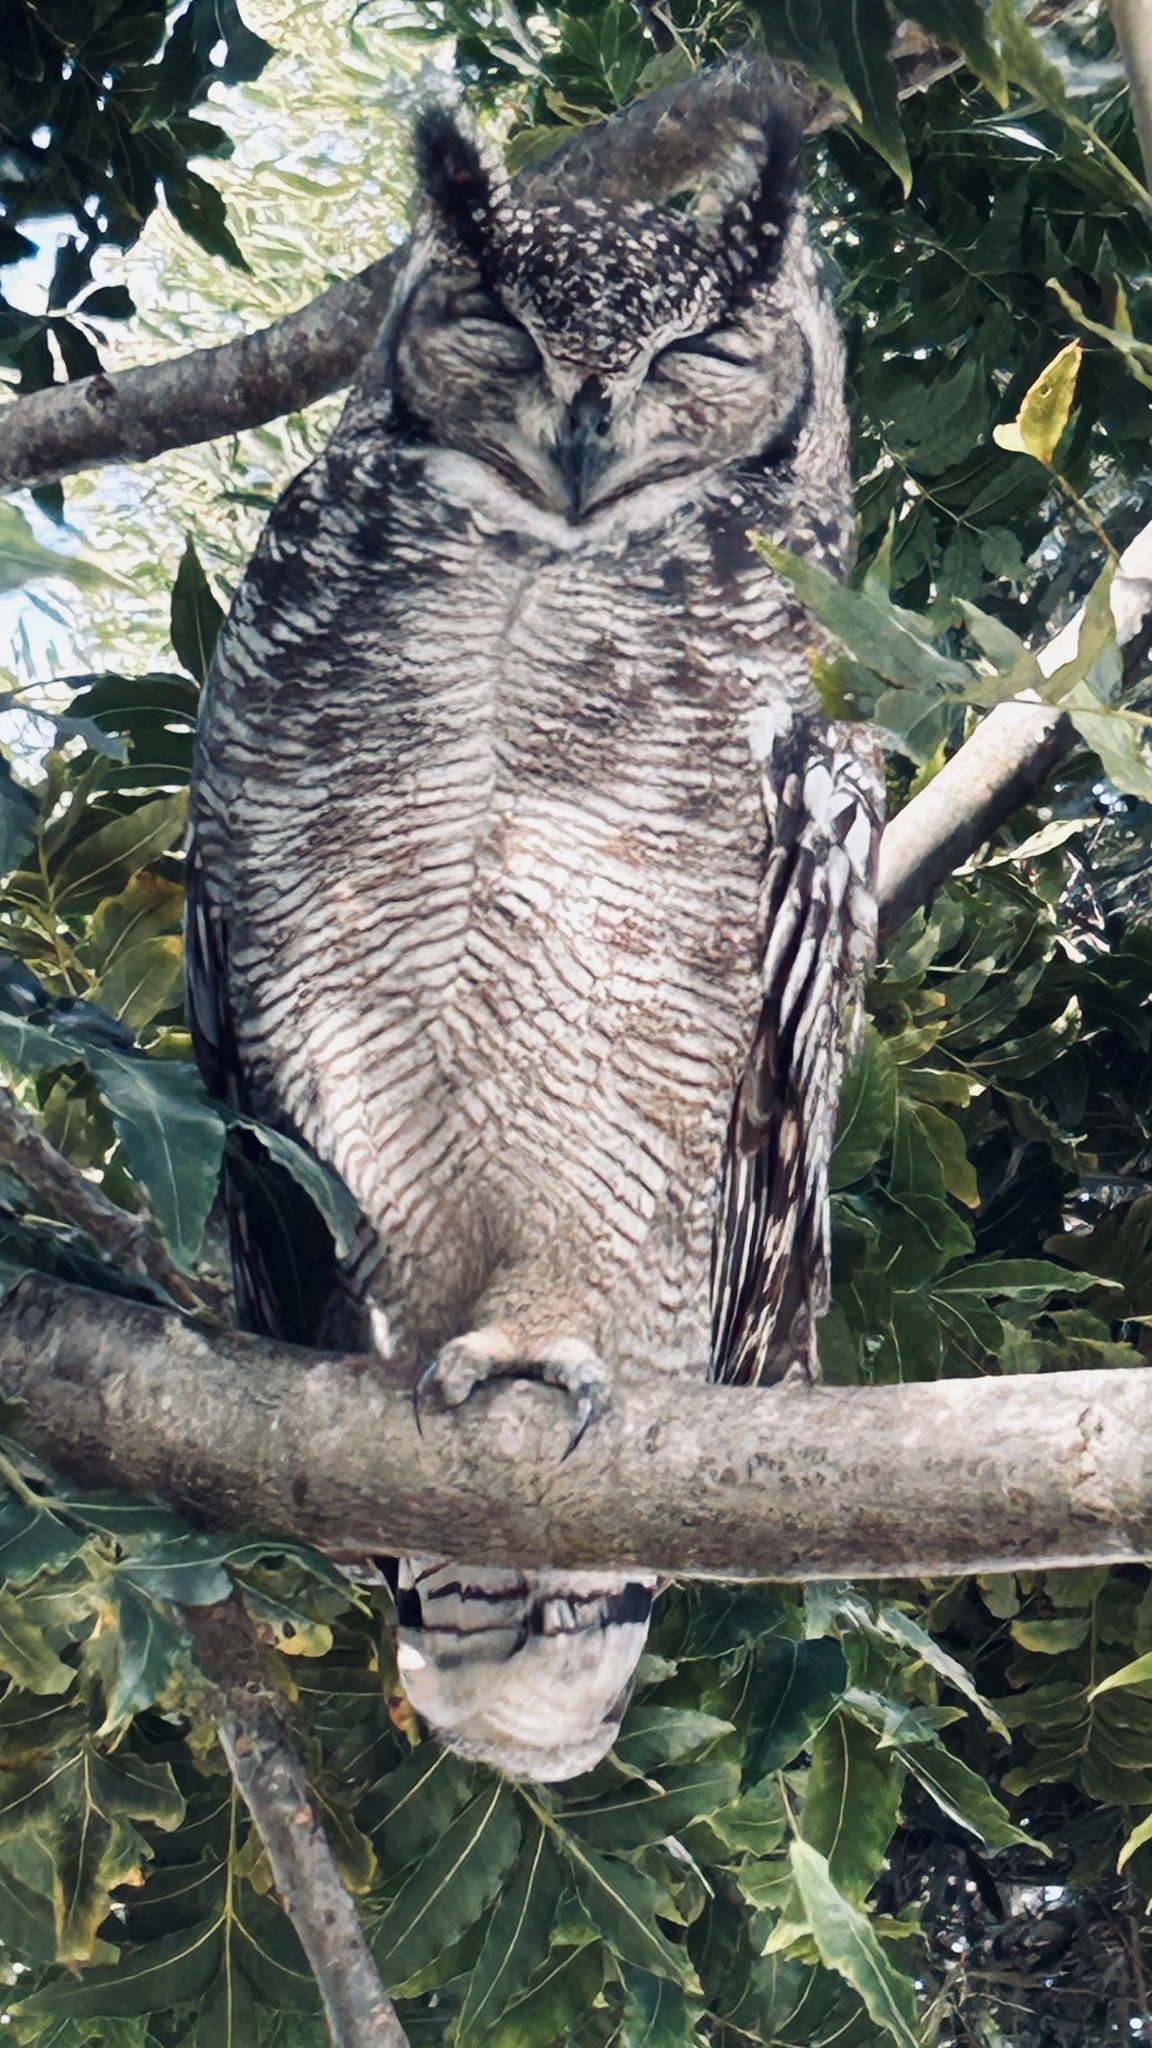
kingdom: Animalia
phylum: Chordata
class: Aves
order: Strigiformes
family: Strigidae
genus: Bubo
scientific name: Bubo africanus
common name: Spotted eagle-owl
